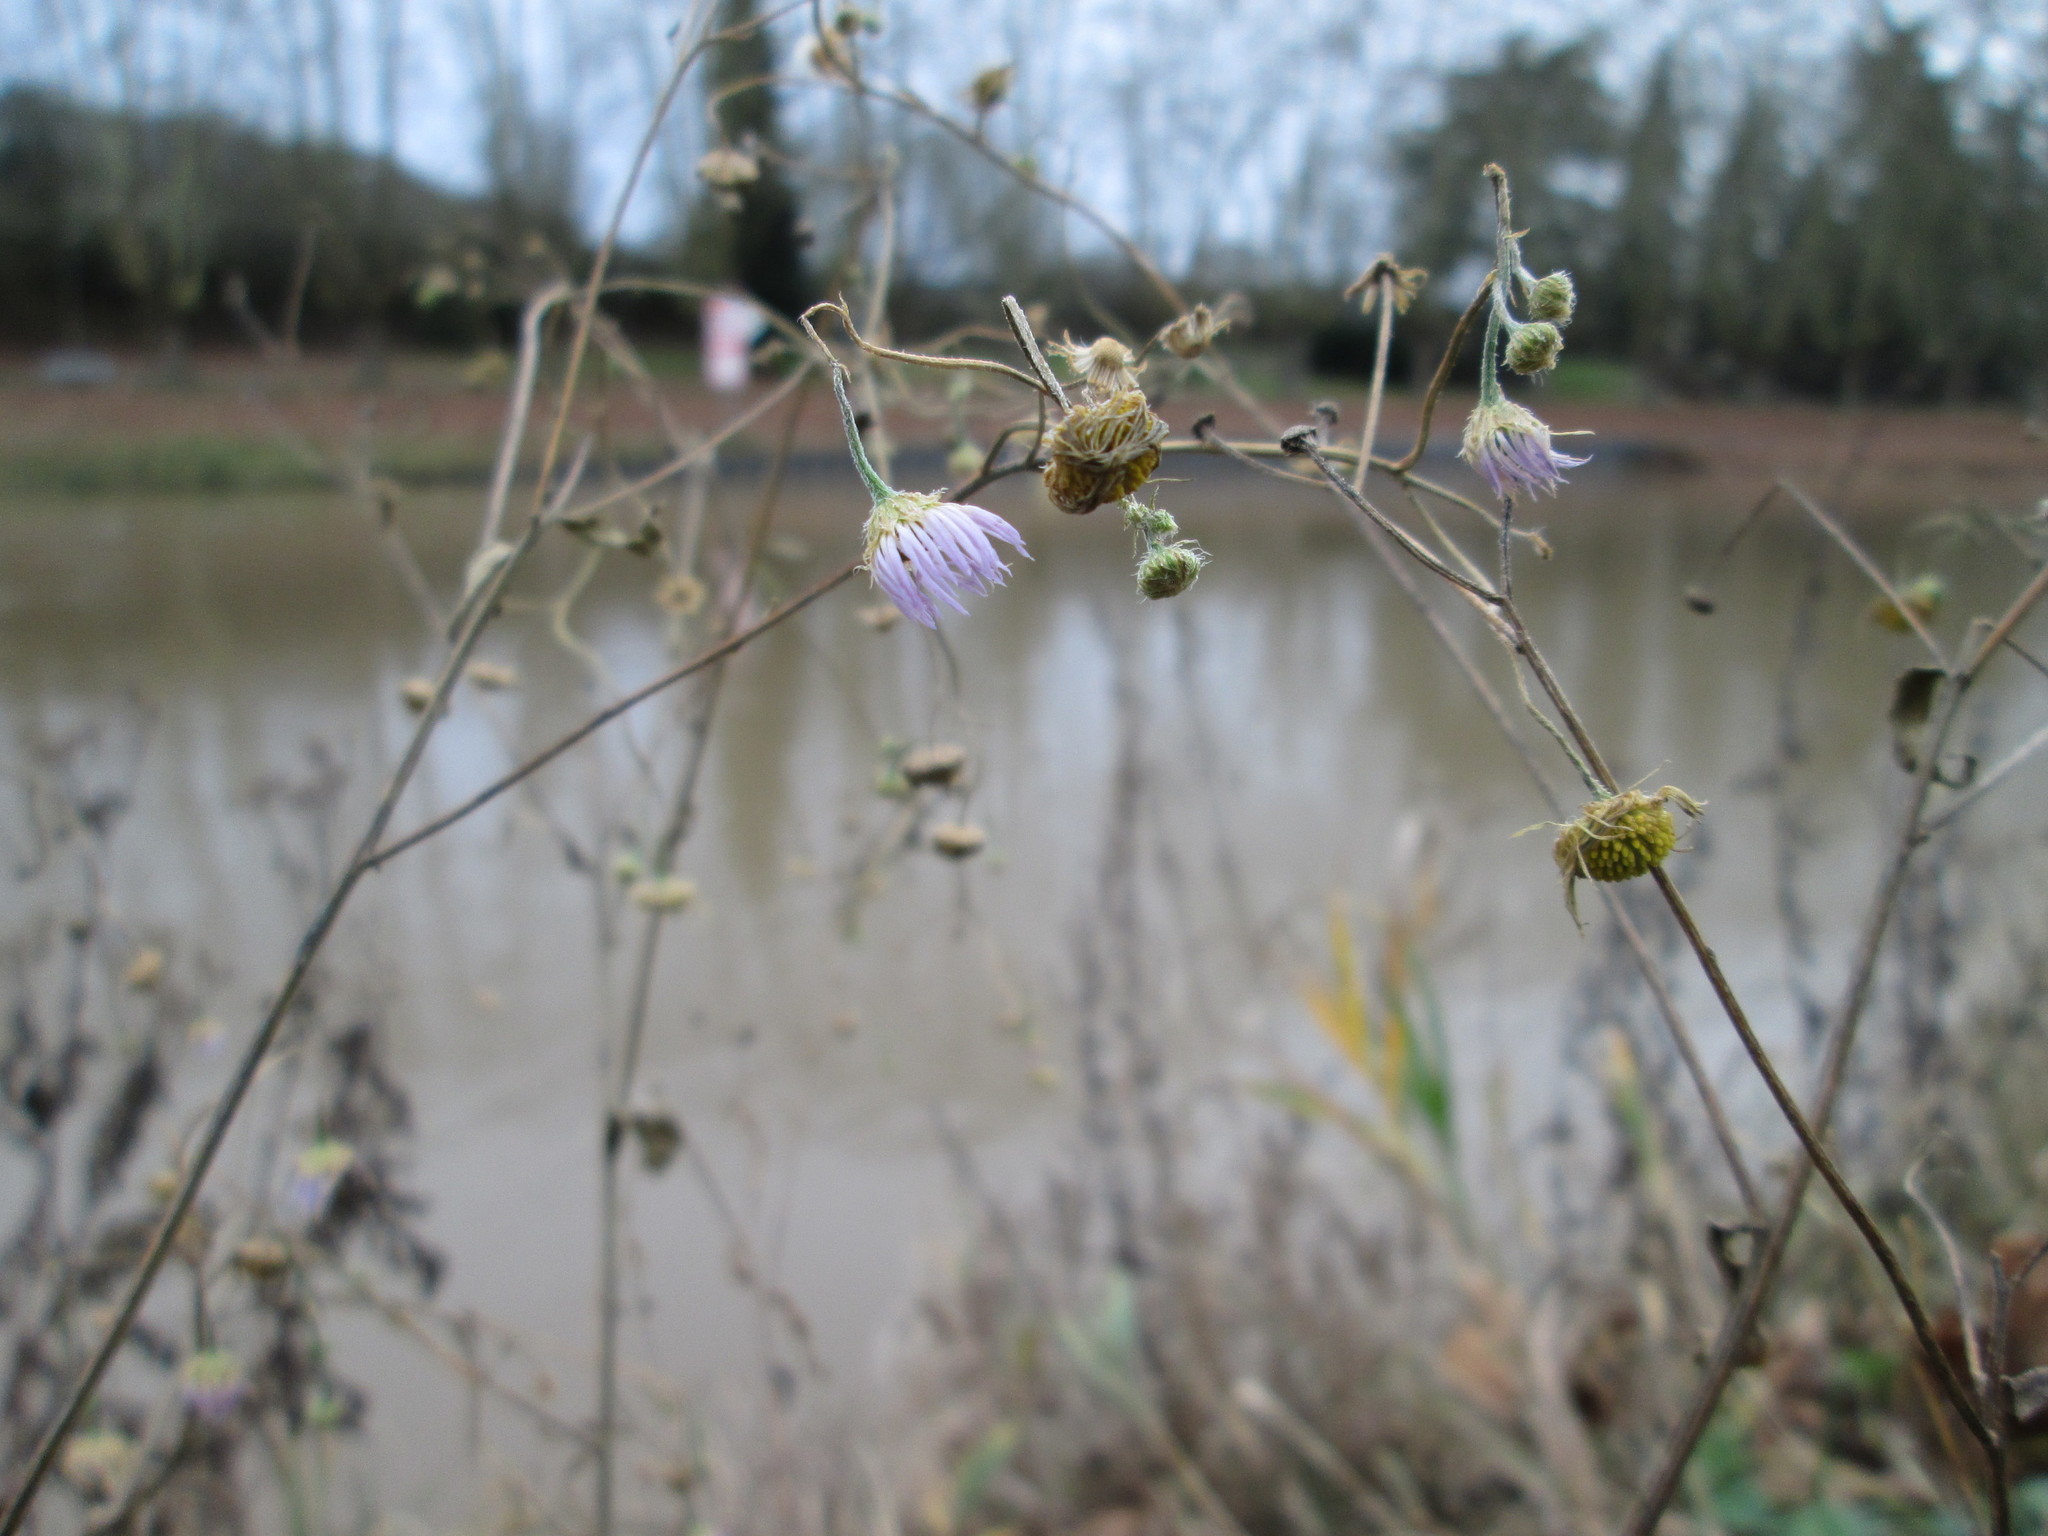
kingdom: Plantae
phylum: Tracheophyta
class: Magnoliopsida
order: Asterales
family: Asteraceae
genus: Erigeron
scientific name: Erigeron annuus
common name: Tall fleabane
